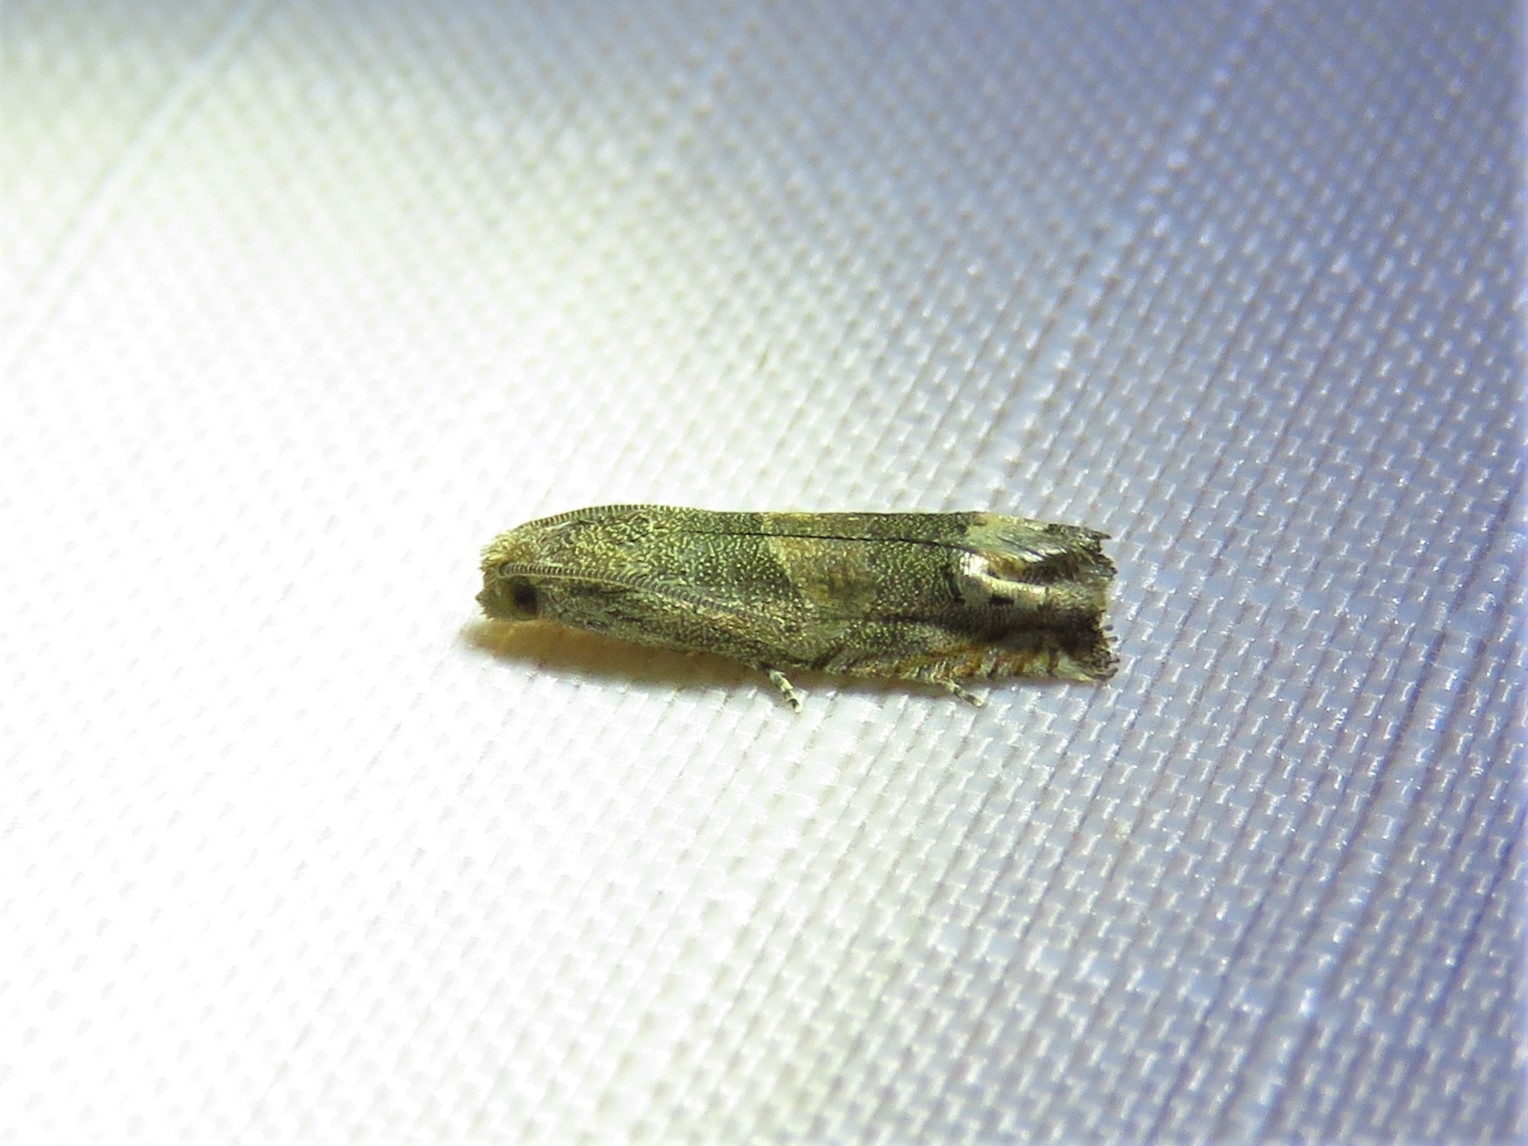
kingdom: Animalia
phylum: Arthropoda
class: Insecta
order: Lepidoptera
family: Tortricidae
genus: Epiblema
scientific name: Epiblema strenuana
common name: Ragweed borer moth
